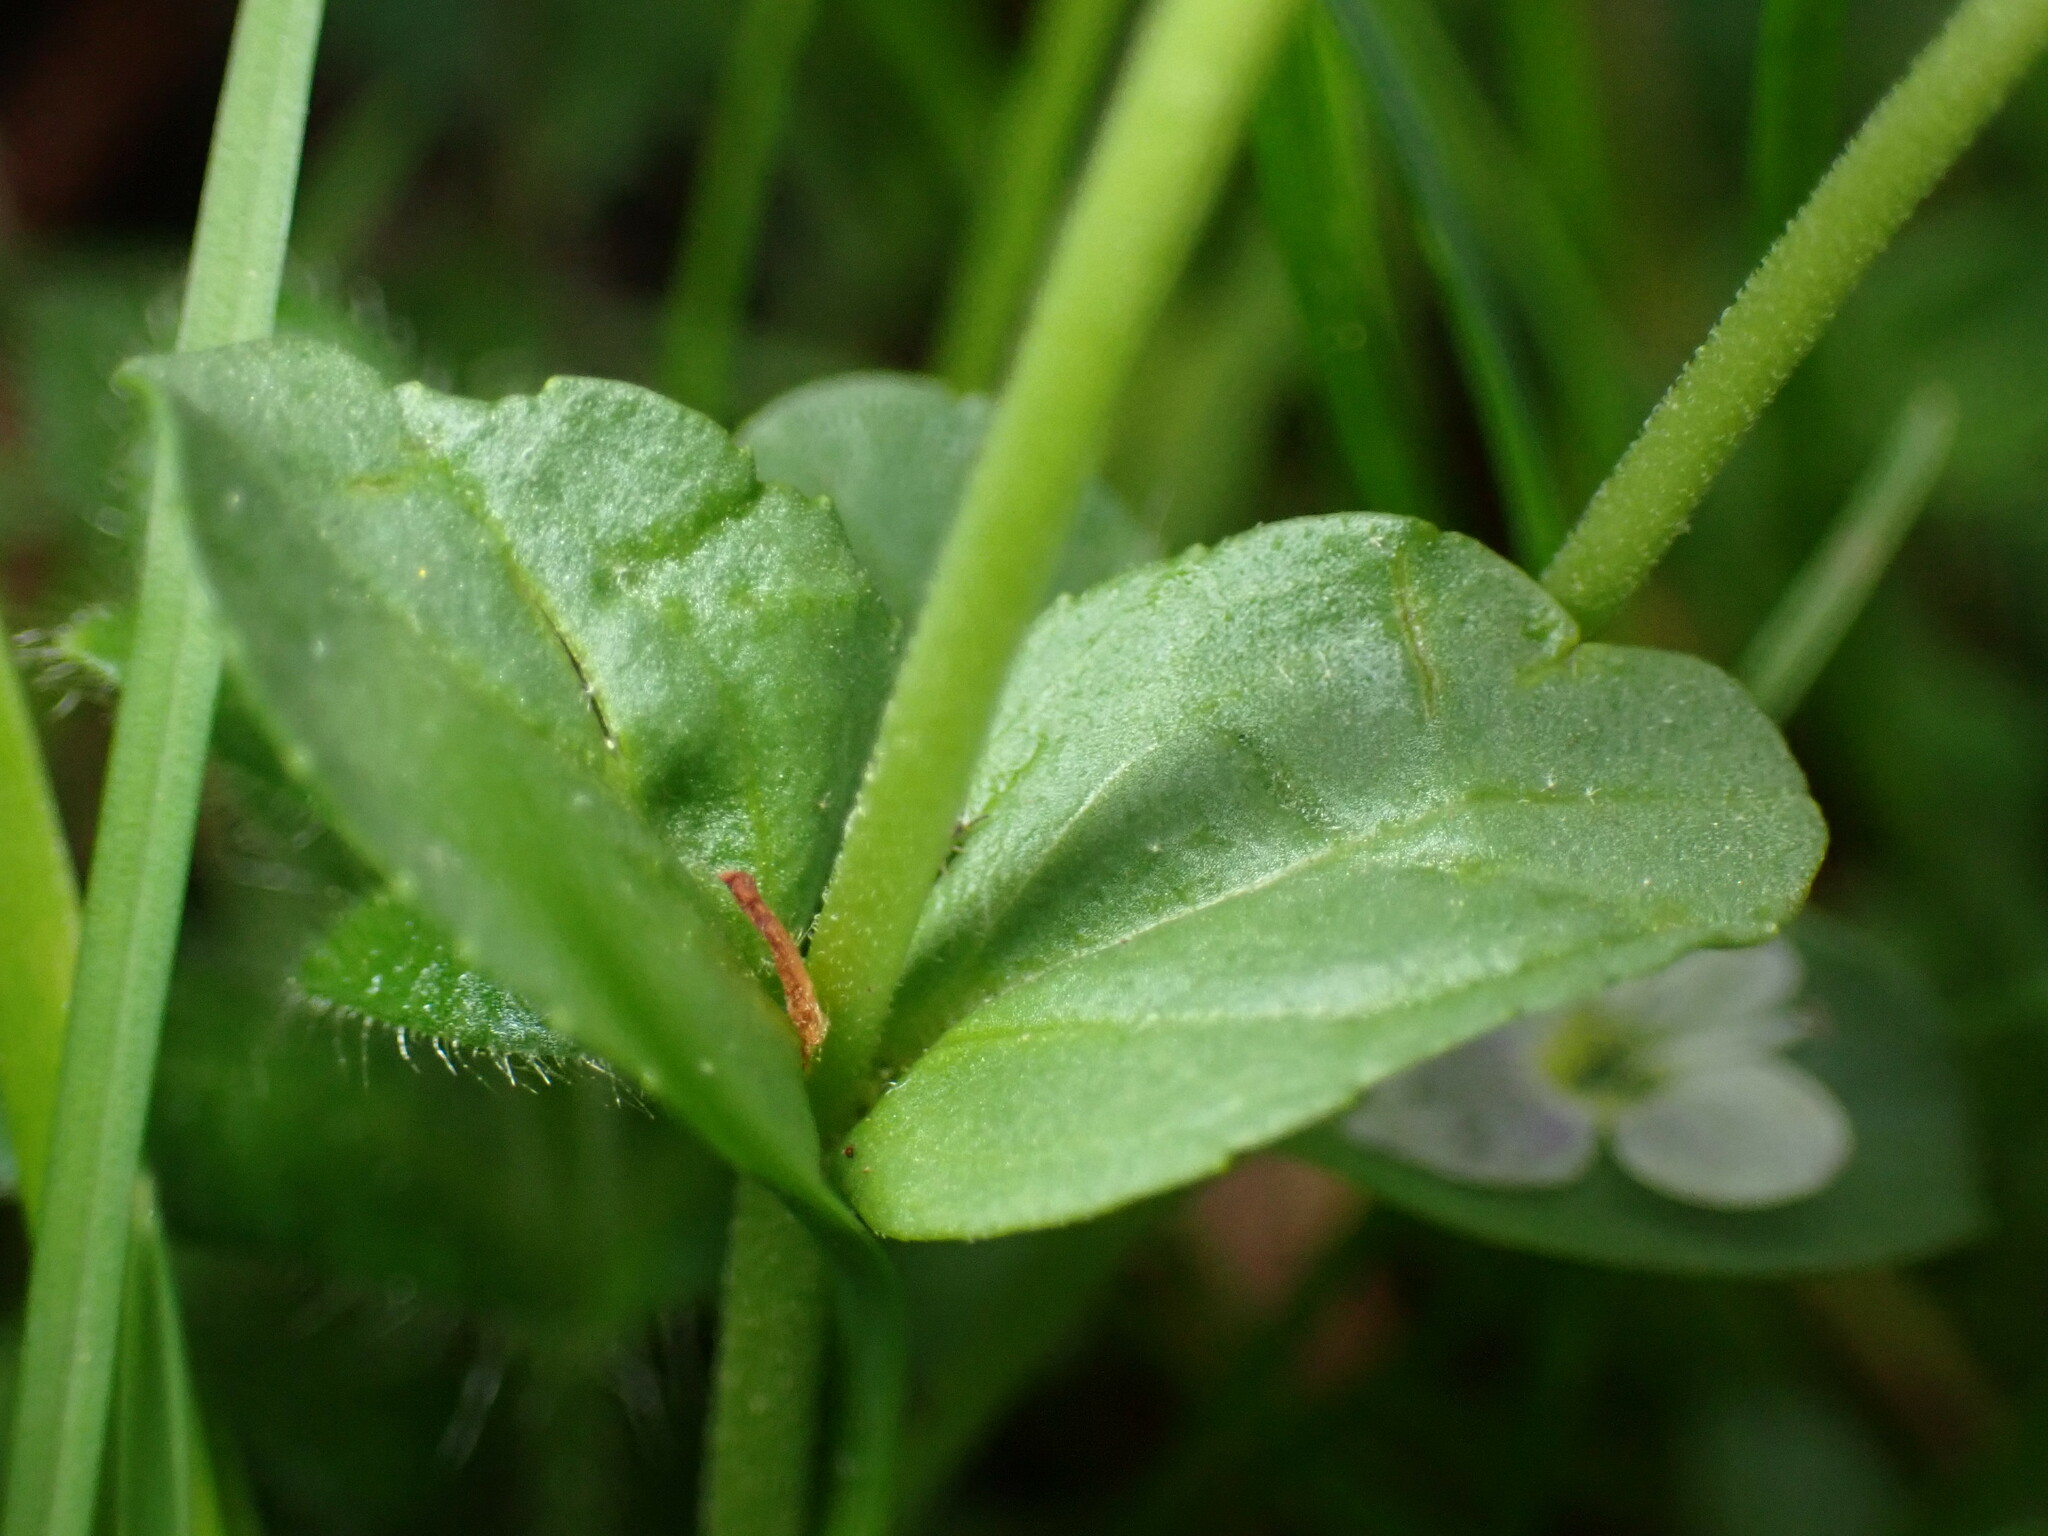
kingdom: Plantae
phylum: Tracheophyta
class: Magnoliopsida
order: Lamiales
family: Plantaginaceae
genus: Veronica
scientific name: Veronica serpyllifolia
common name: Thyme-leaved speedwell
